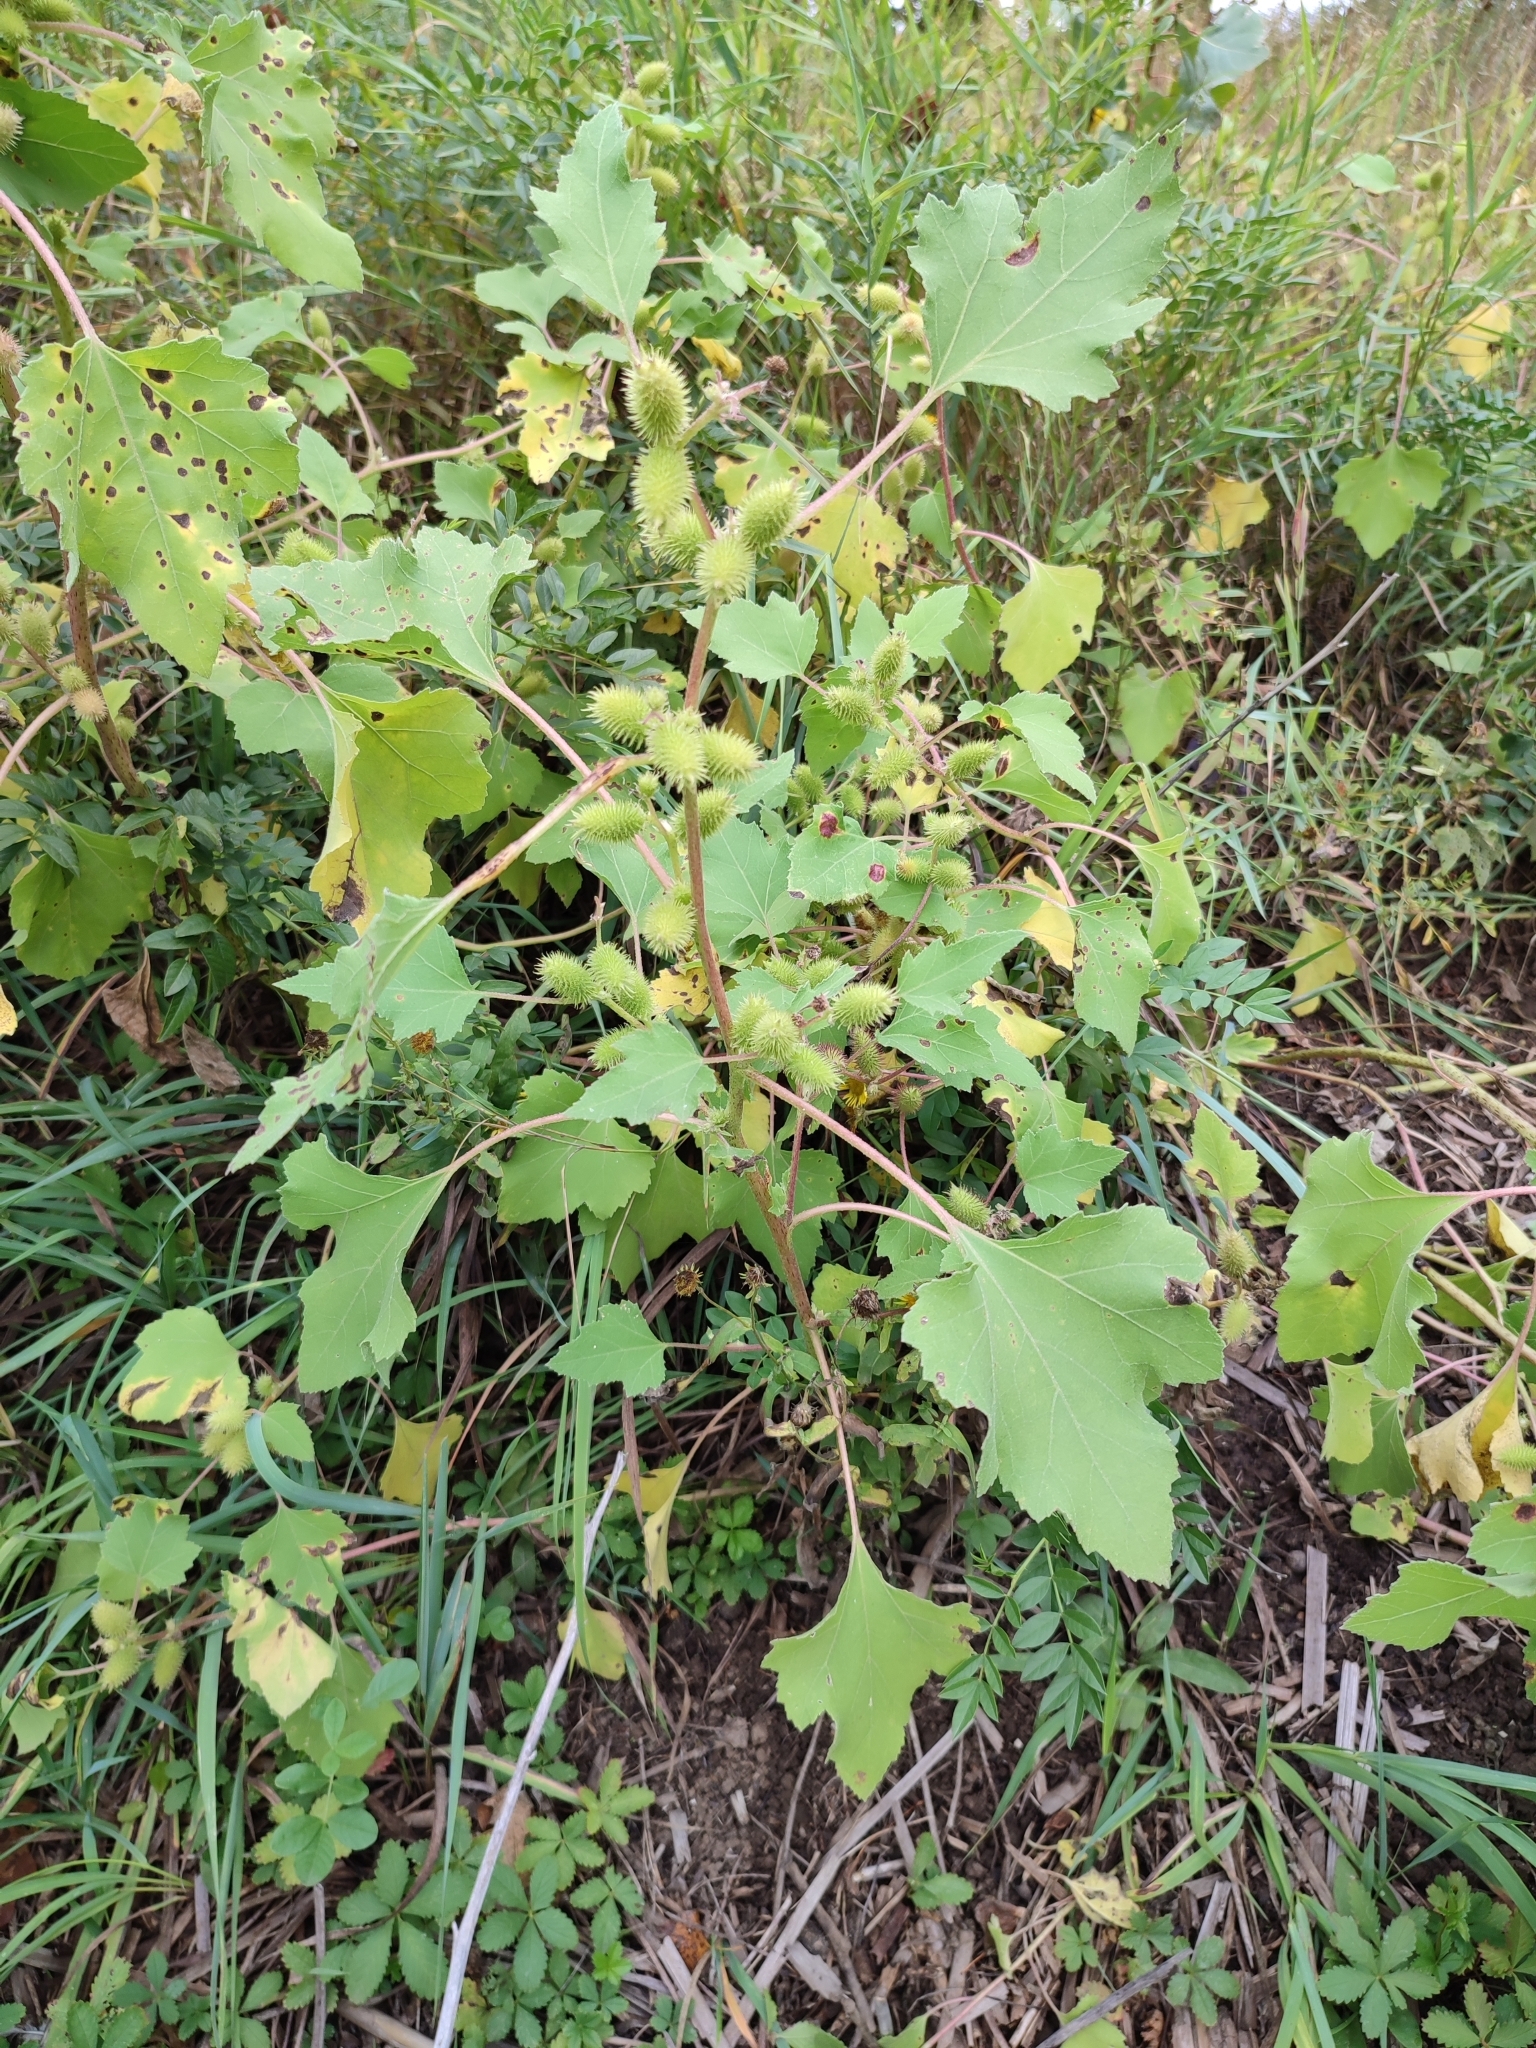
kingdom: Plantae
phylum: Tracheophyta
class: Magnoliopsida
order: Asterales
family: Asteraceae
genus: Xanthium
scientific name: Xanthium orientale
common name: Californian burr
